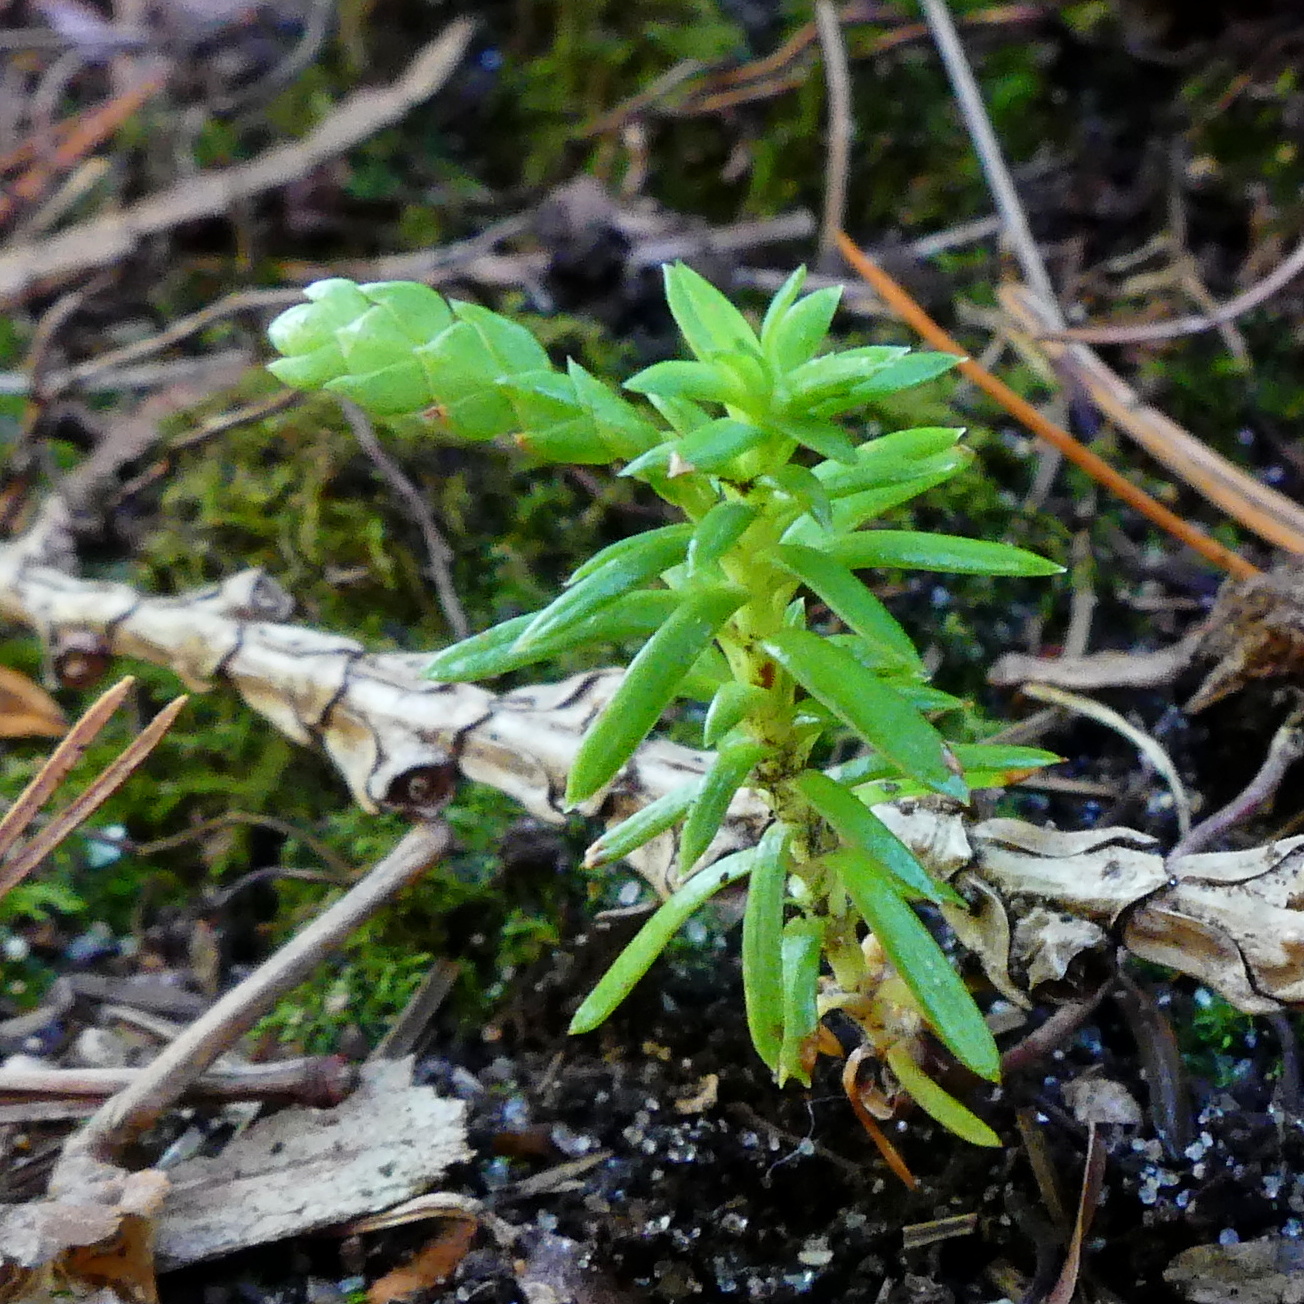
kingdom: Plantae
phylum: Tracheophyta
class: Pinopsida
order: Pinales
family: Cupressaceae
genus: Thuja
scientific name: Thuja occidentalis
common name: Northern white-cedar
